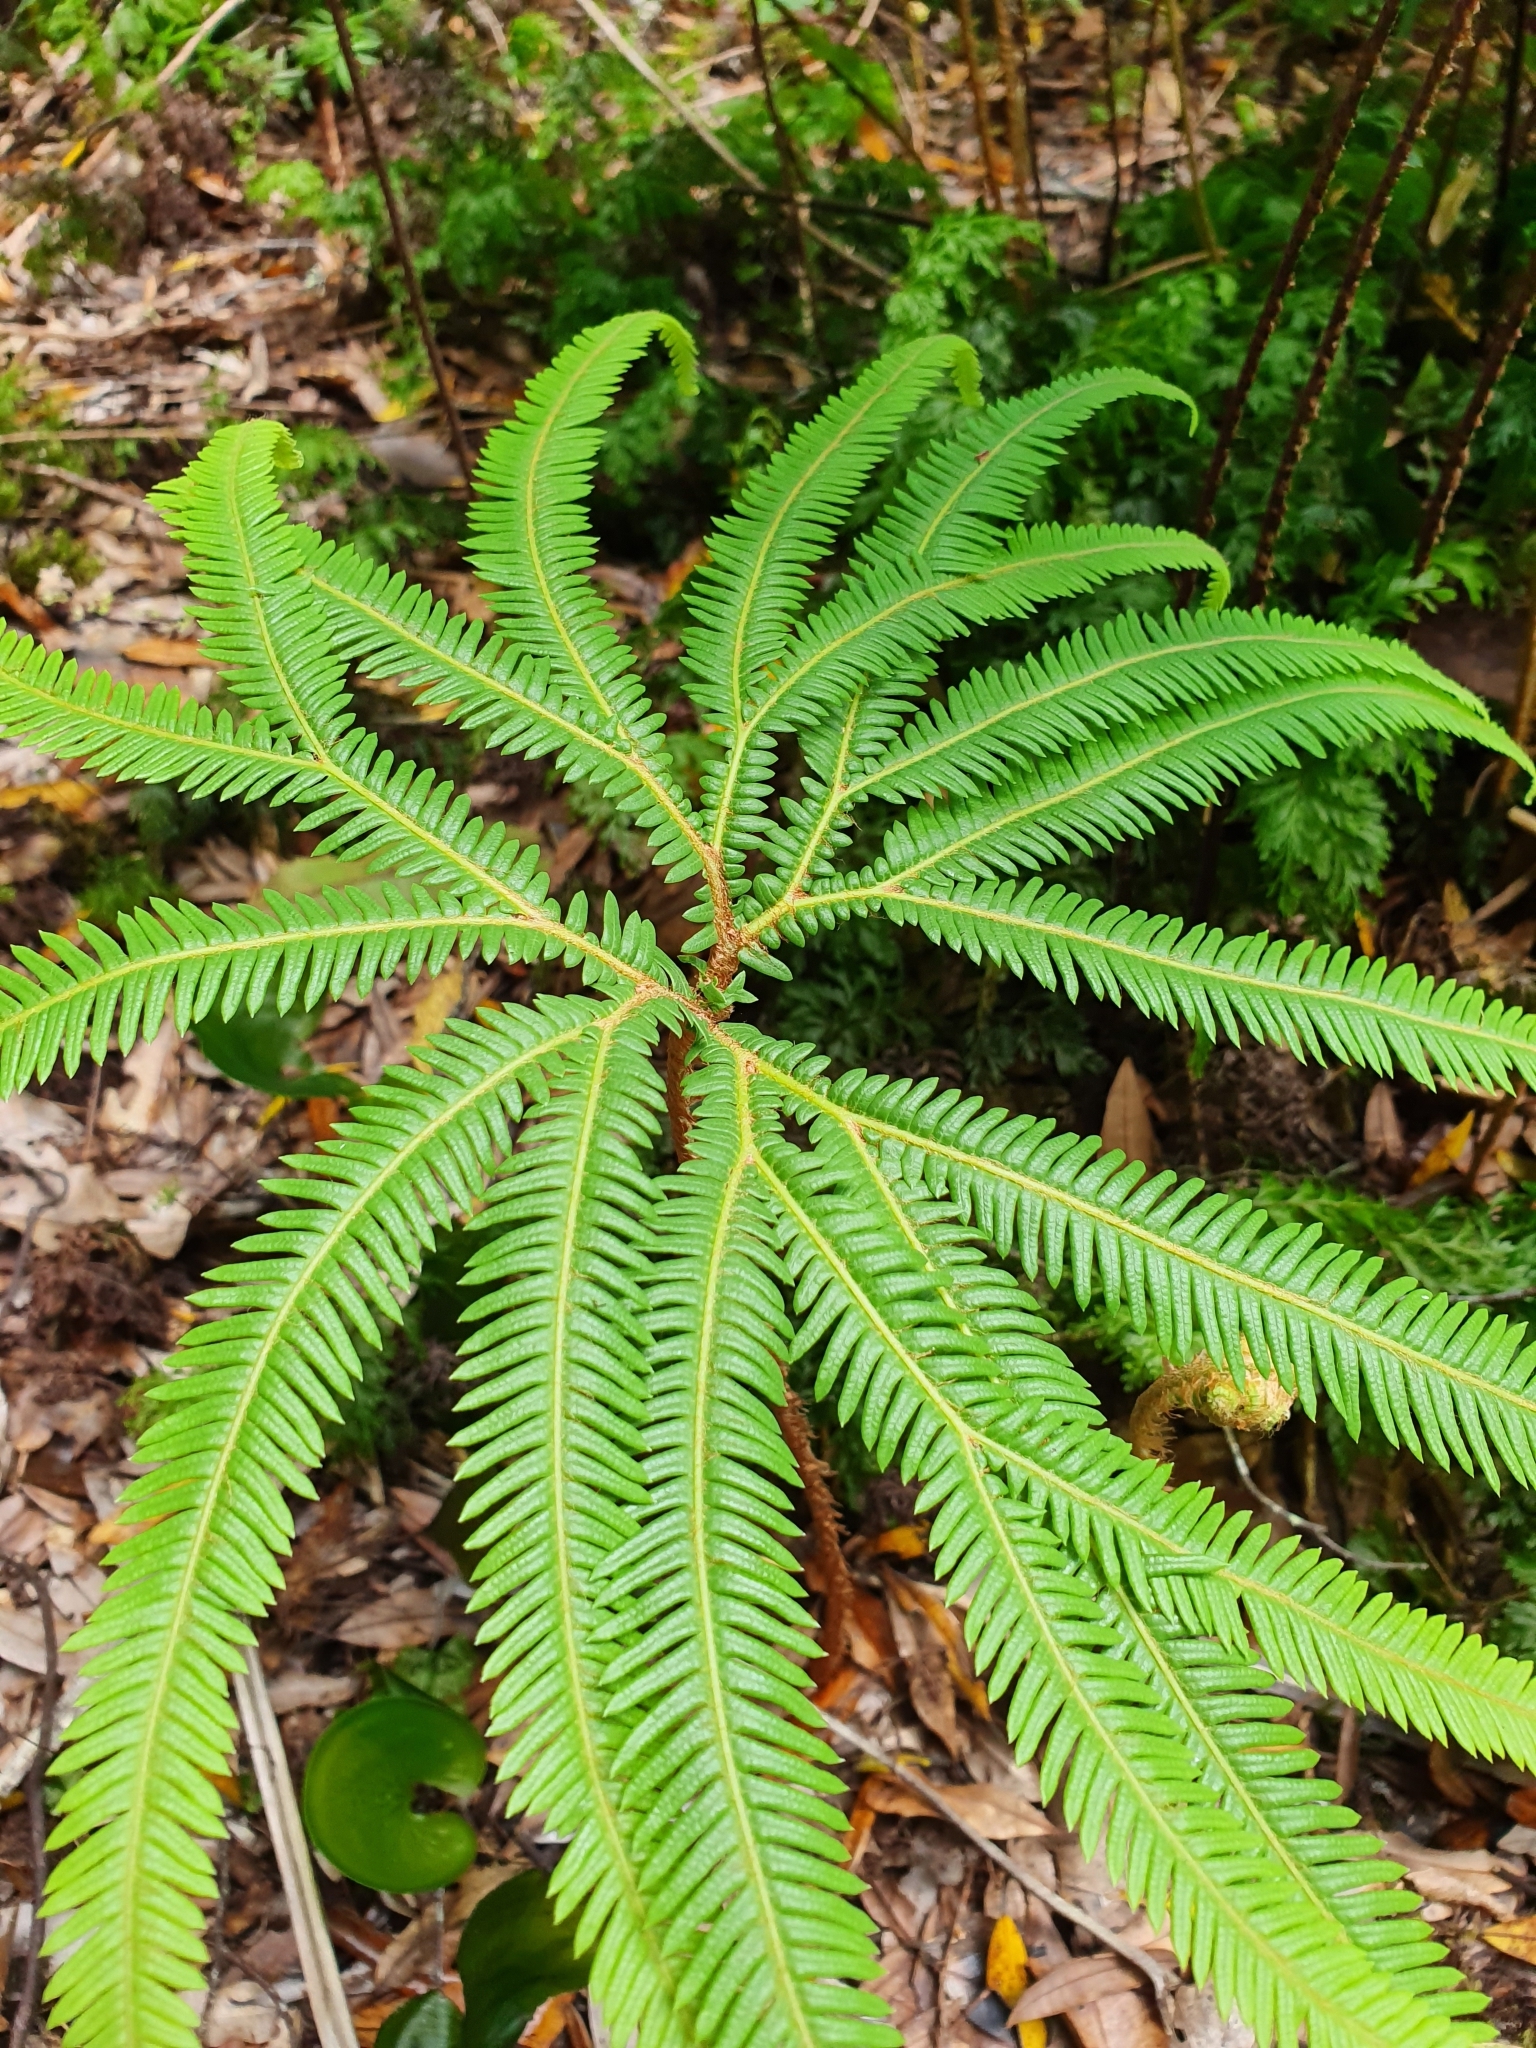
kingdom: Plantae
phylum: Tracheophyta
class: Polypodiopsida
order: Gleicheniales
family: Gleicheniaceae
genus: Sticherus
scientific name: Sticherus cunninghamii
